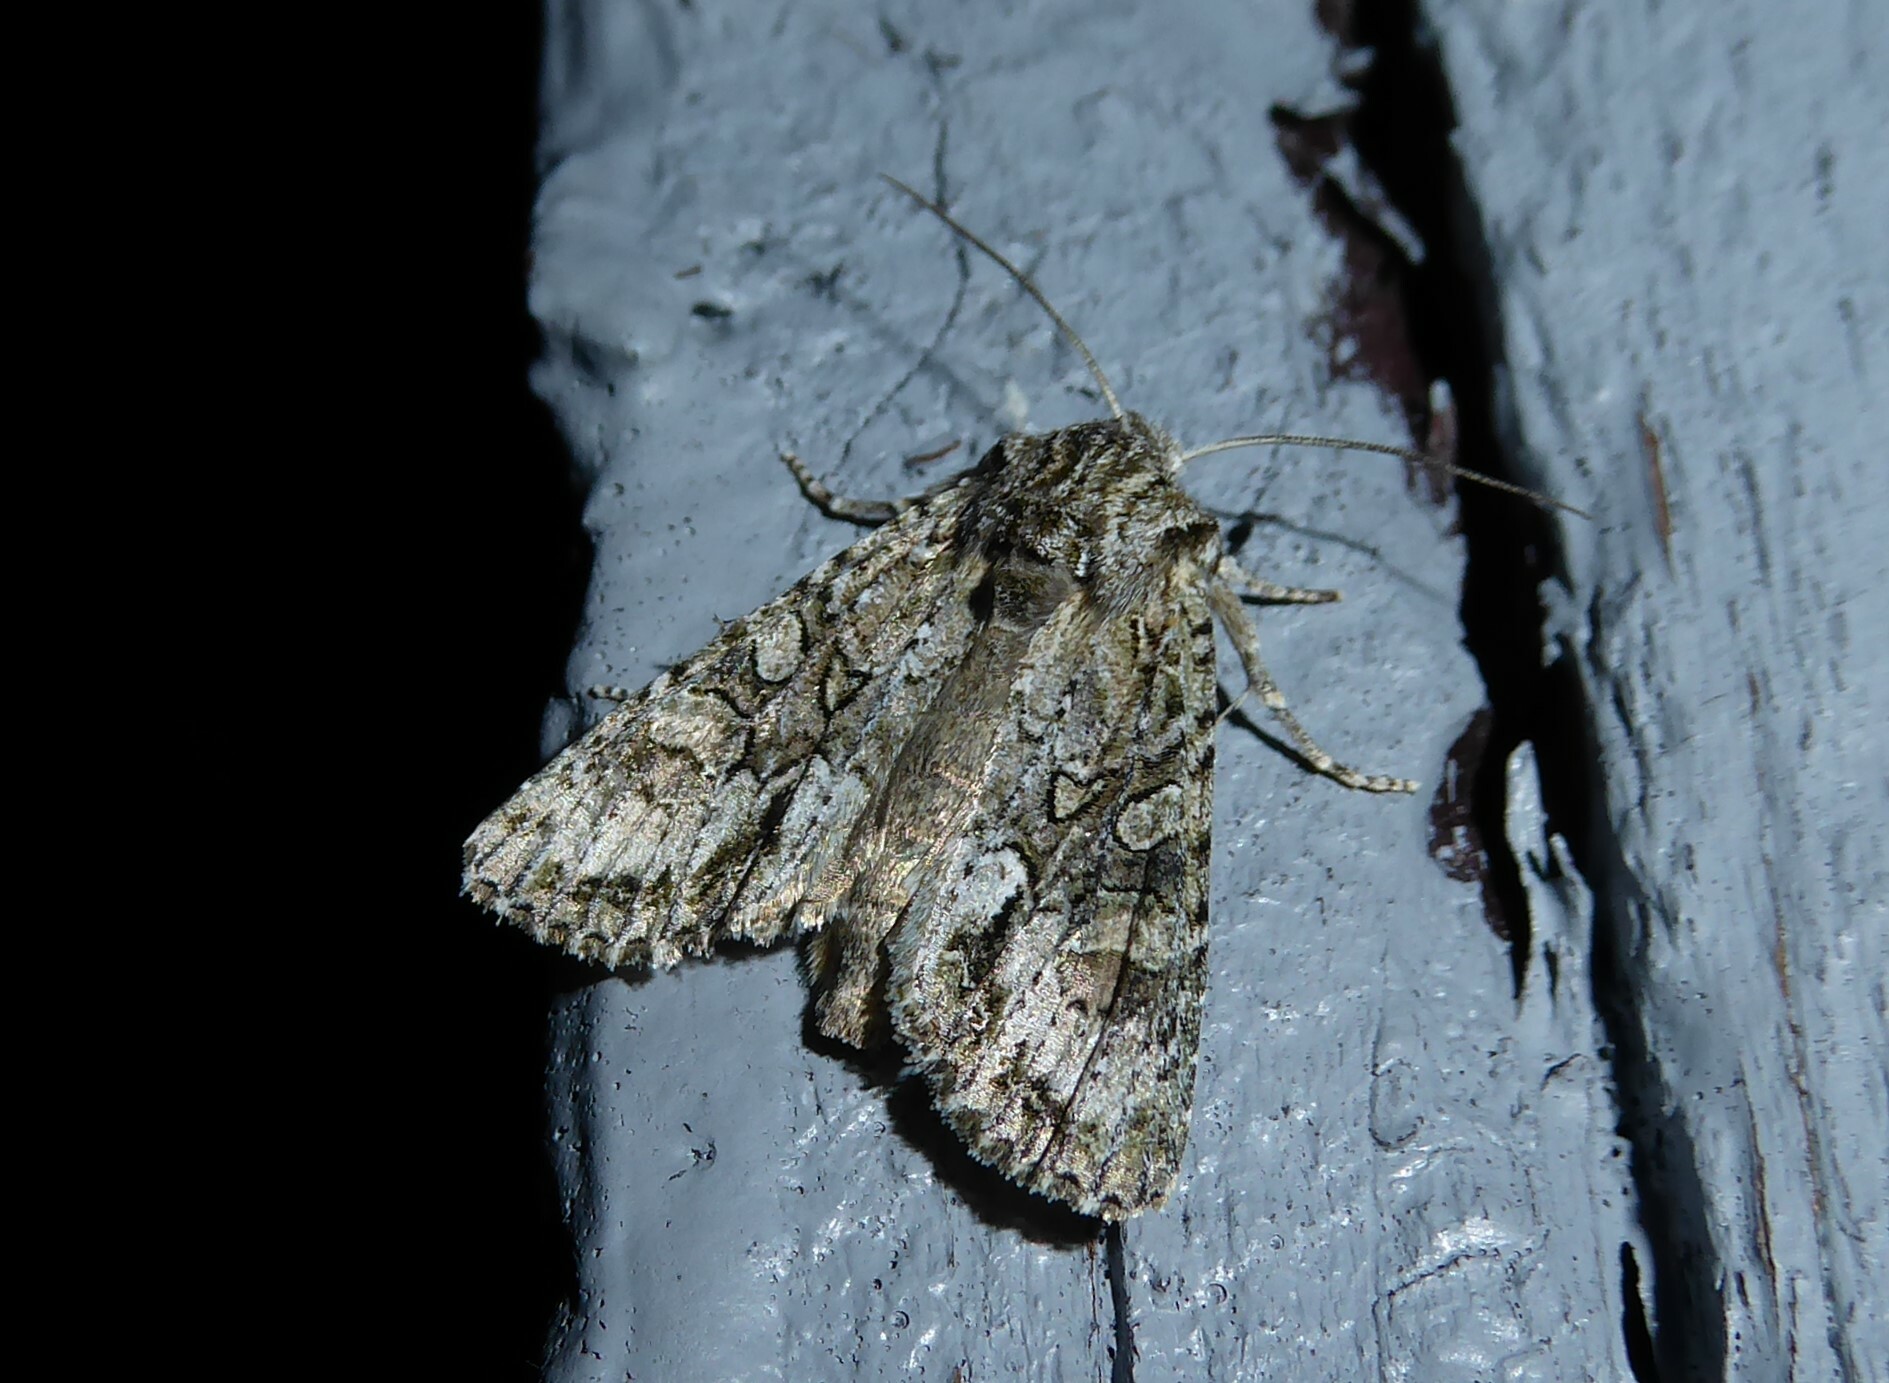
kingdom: Animalia
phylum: Arthropoda
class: Insecta
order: Lepidoptera
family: Noctuidae
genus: Ichneutica
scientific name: Ichneutica mutans
